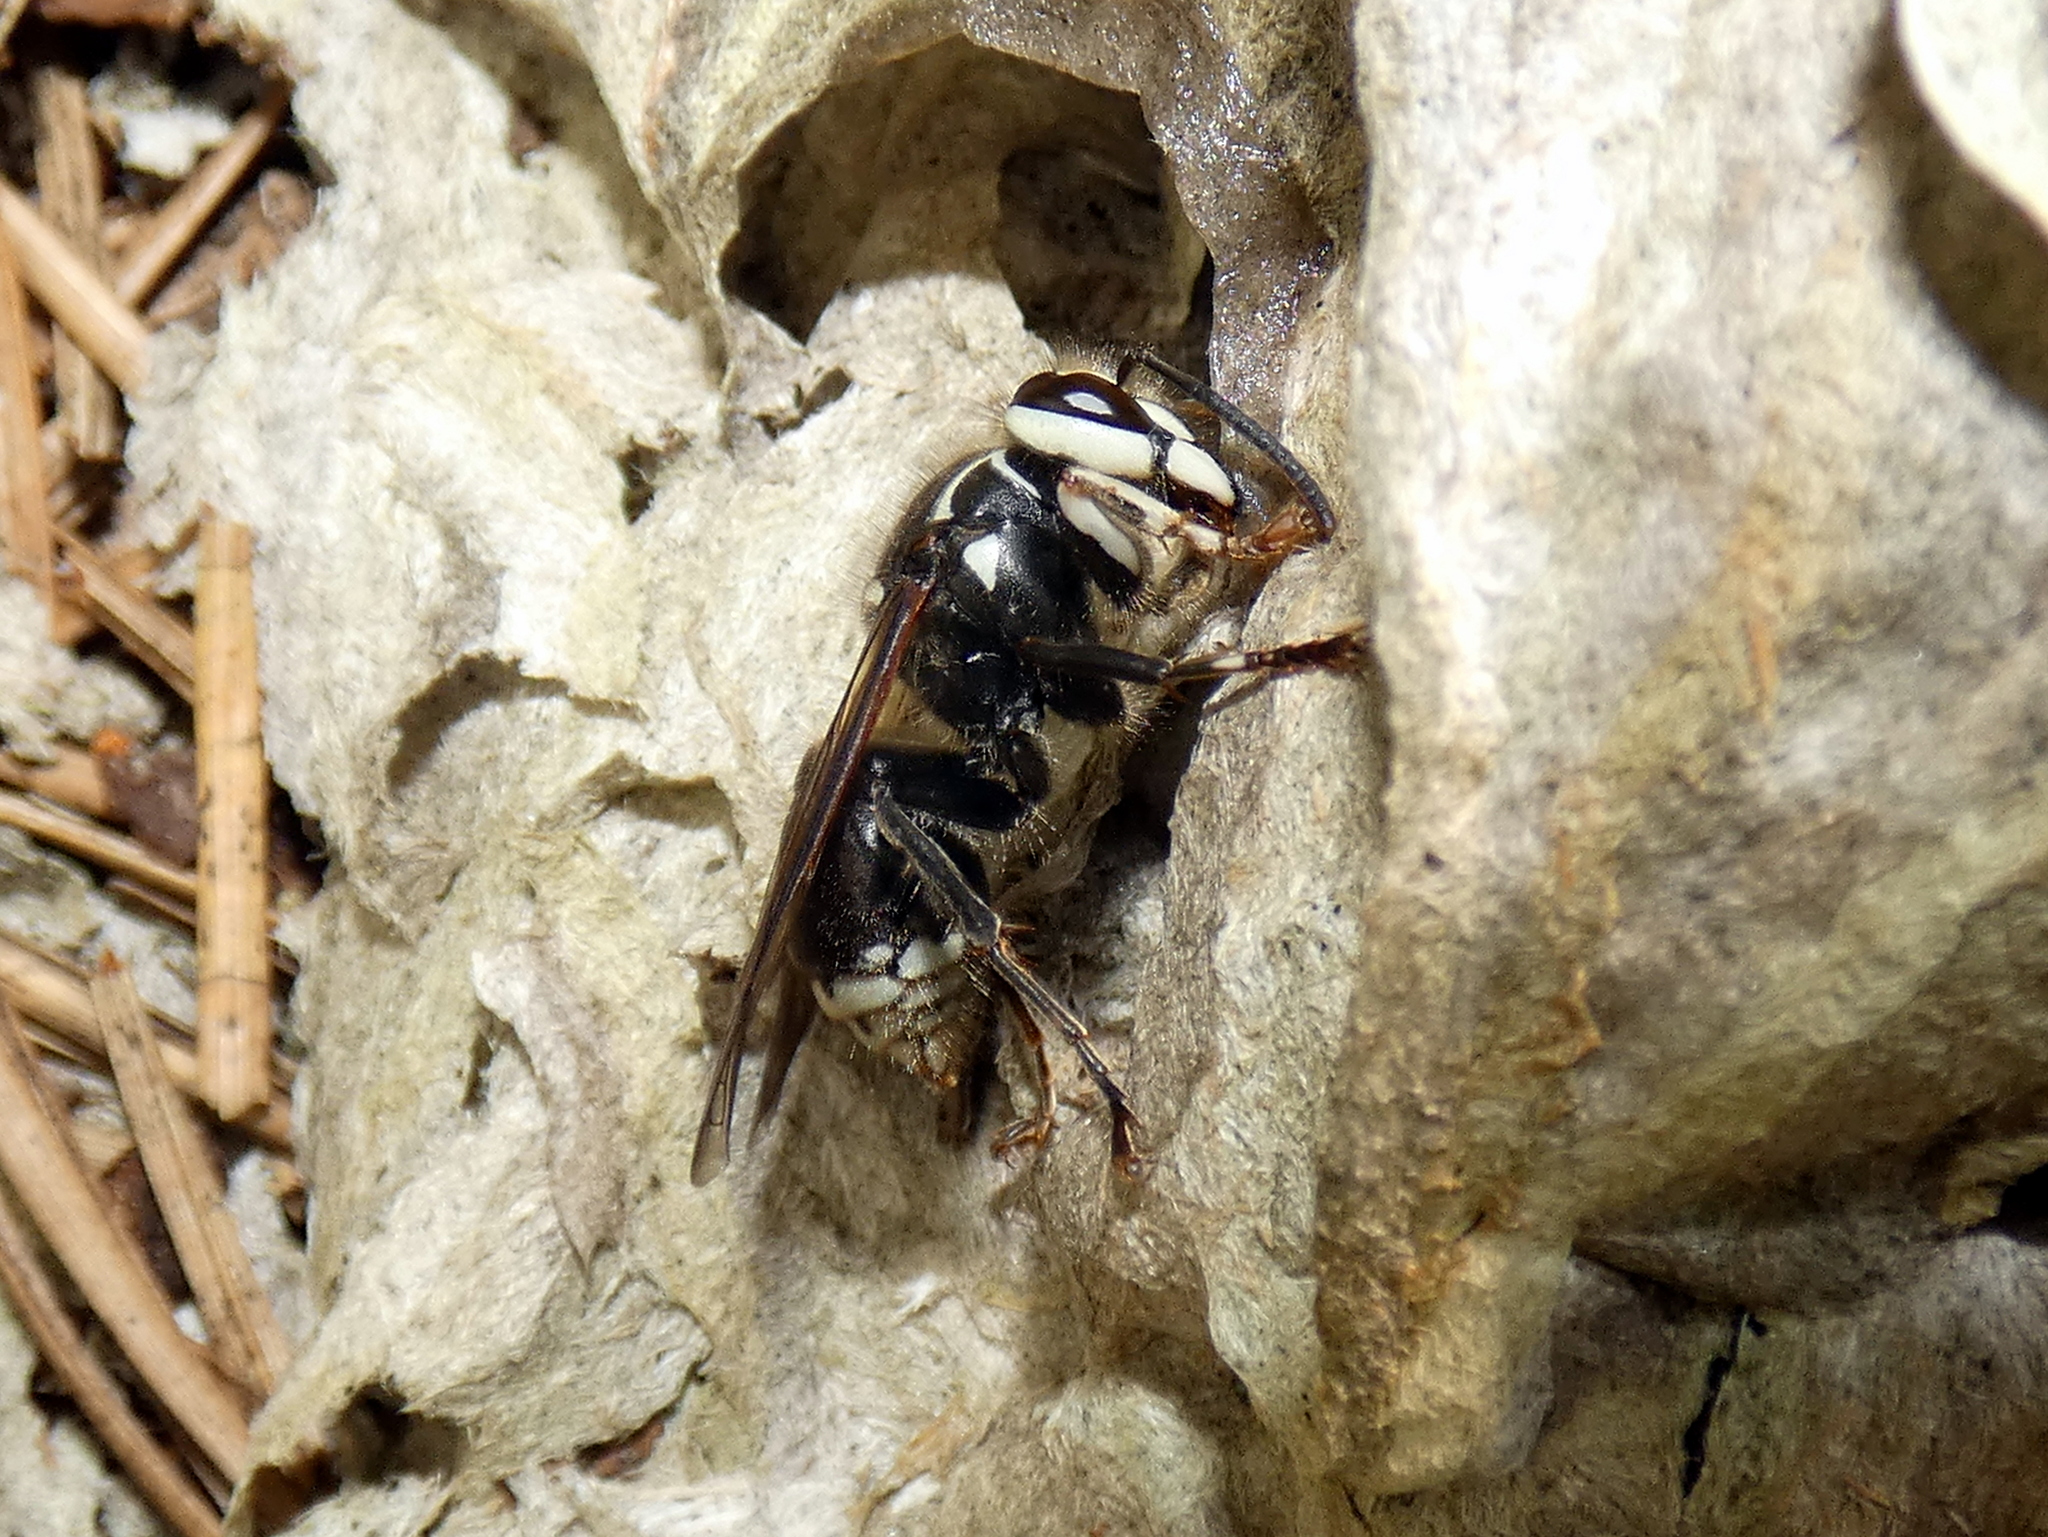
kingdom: Animalia
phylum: Arthropoda
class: Insecta
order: Hymenoptera
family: Vespidae
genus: Dolichovespula
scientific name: Dolichovespula maculata
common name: Bald-faced hornet
